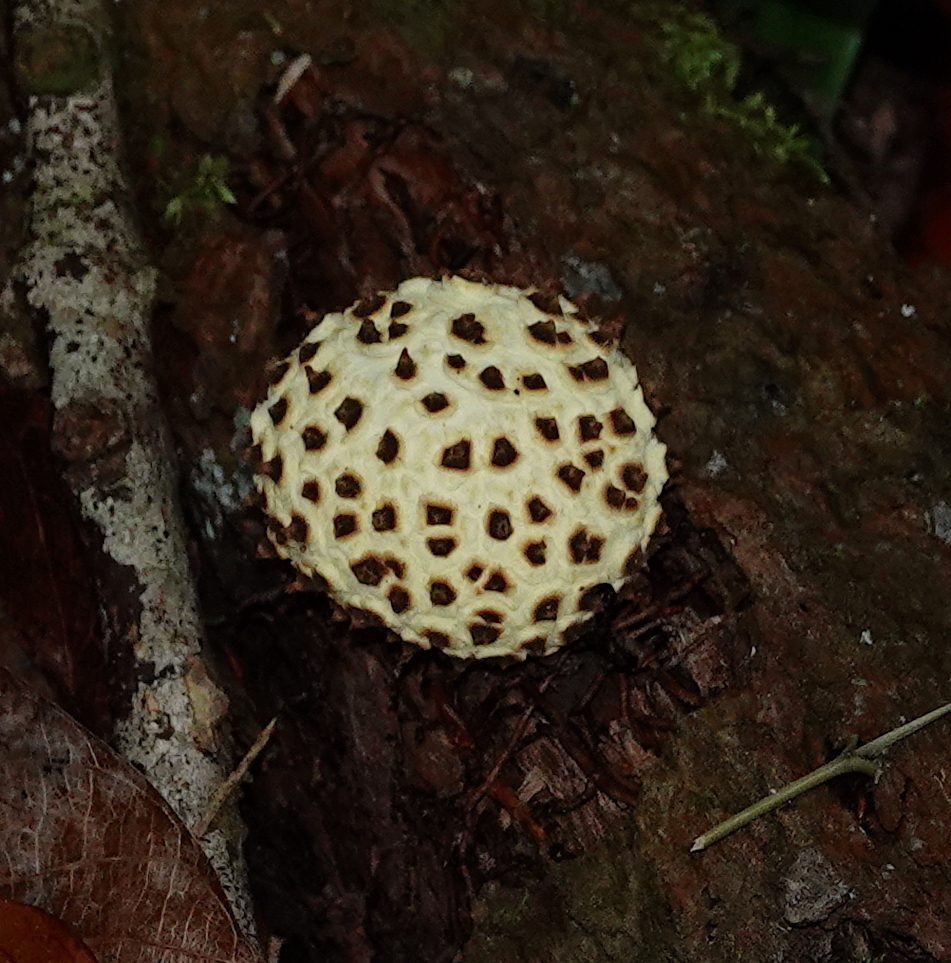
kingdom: Fungi
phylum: Basidiomycota
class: Agaricomycetes
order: Boletales
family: Sclerodermataceae
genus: Scleroderma
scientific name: Scleroderma areolatum
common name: Leopard earthball
